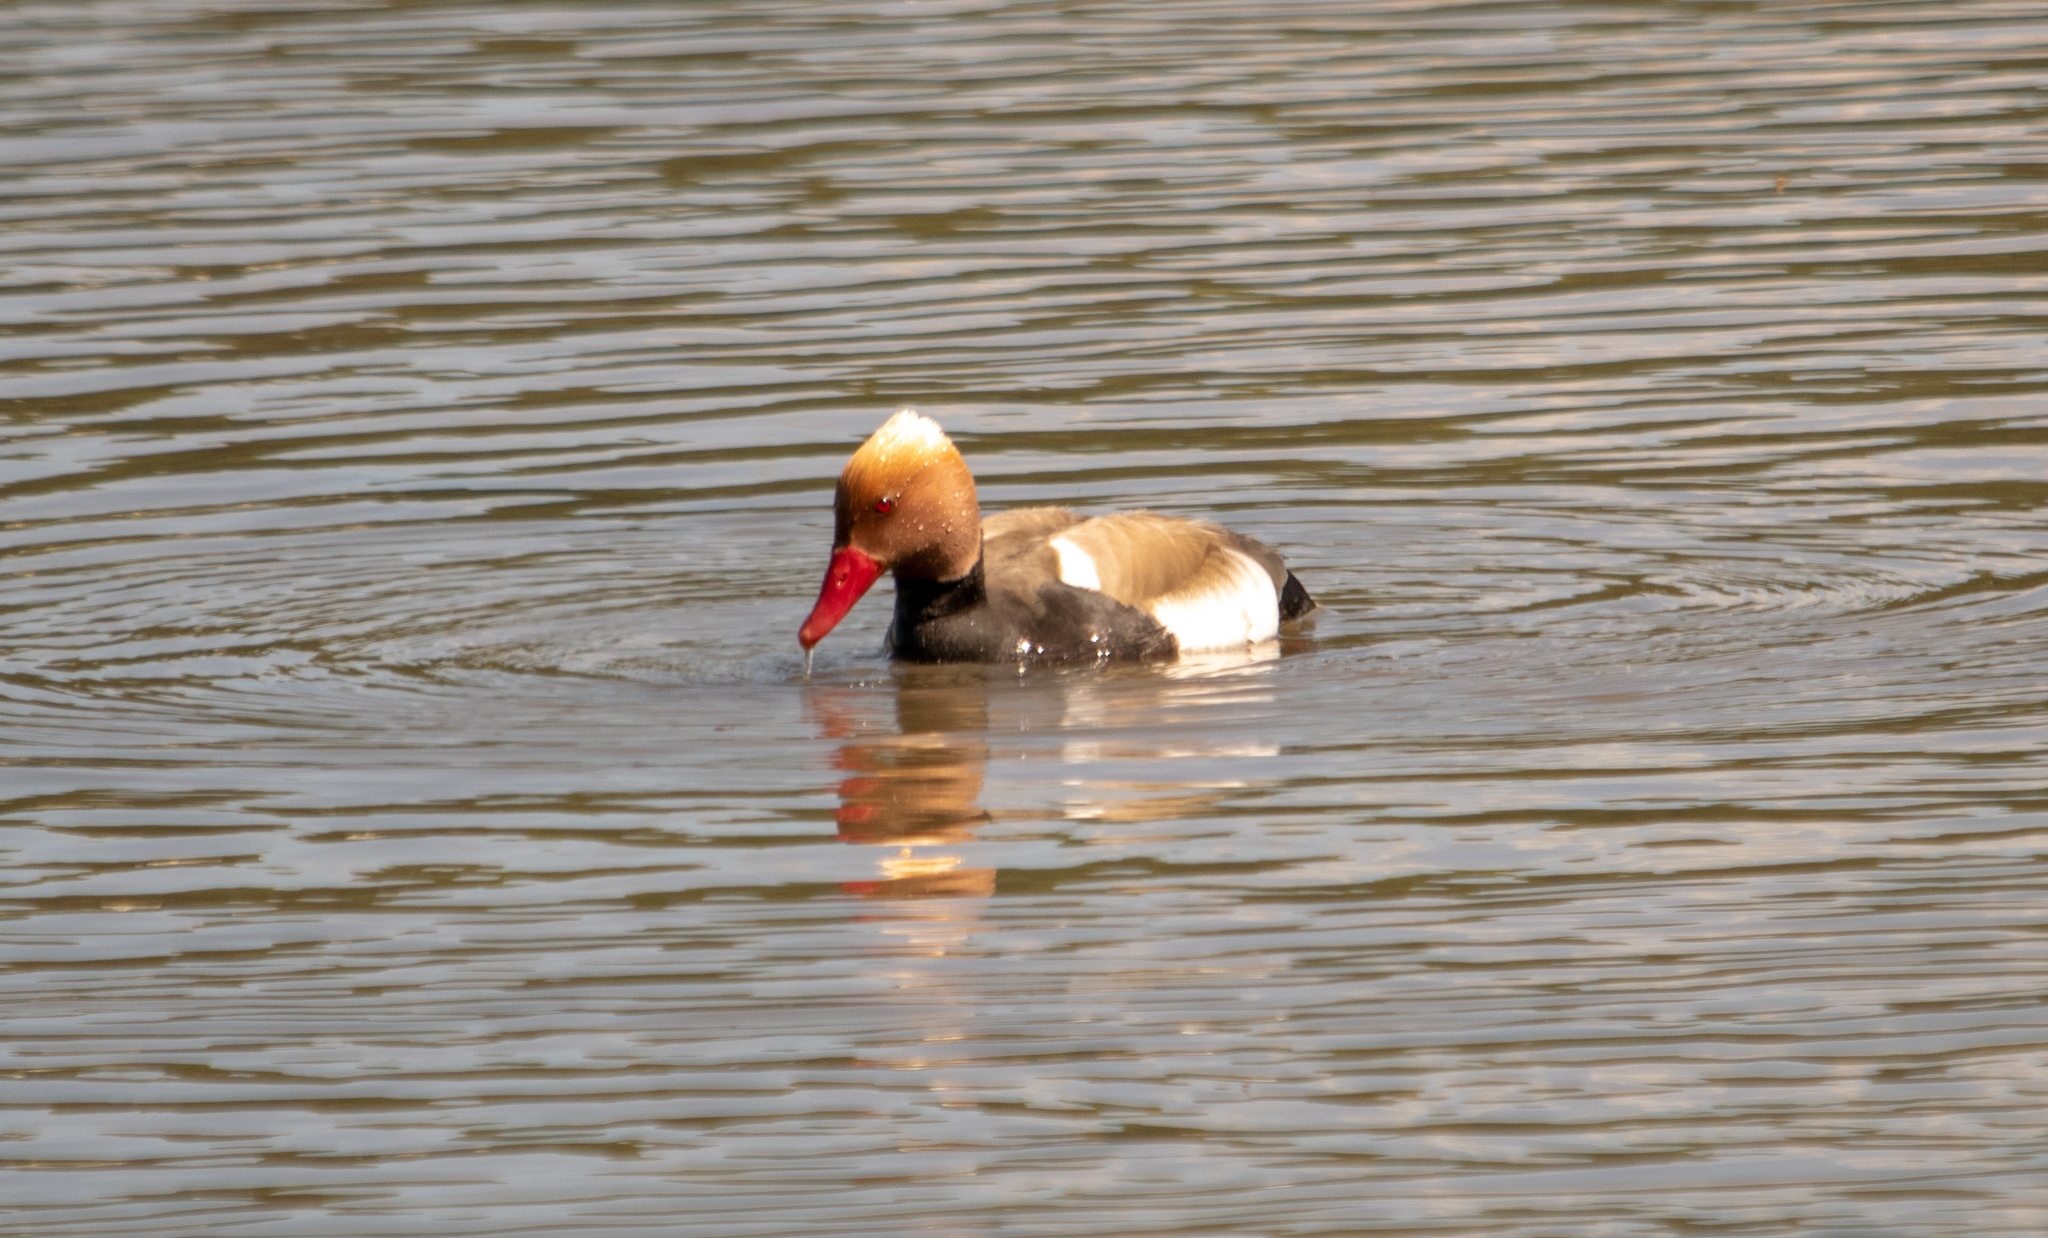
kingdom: Animalia
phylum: Chordata
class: Aves
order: Anseriformes
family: Anatidae
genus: Netta
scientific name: Netta rufina
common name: Red-crested pochard
